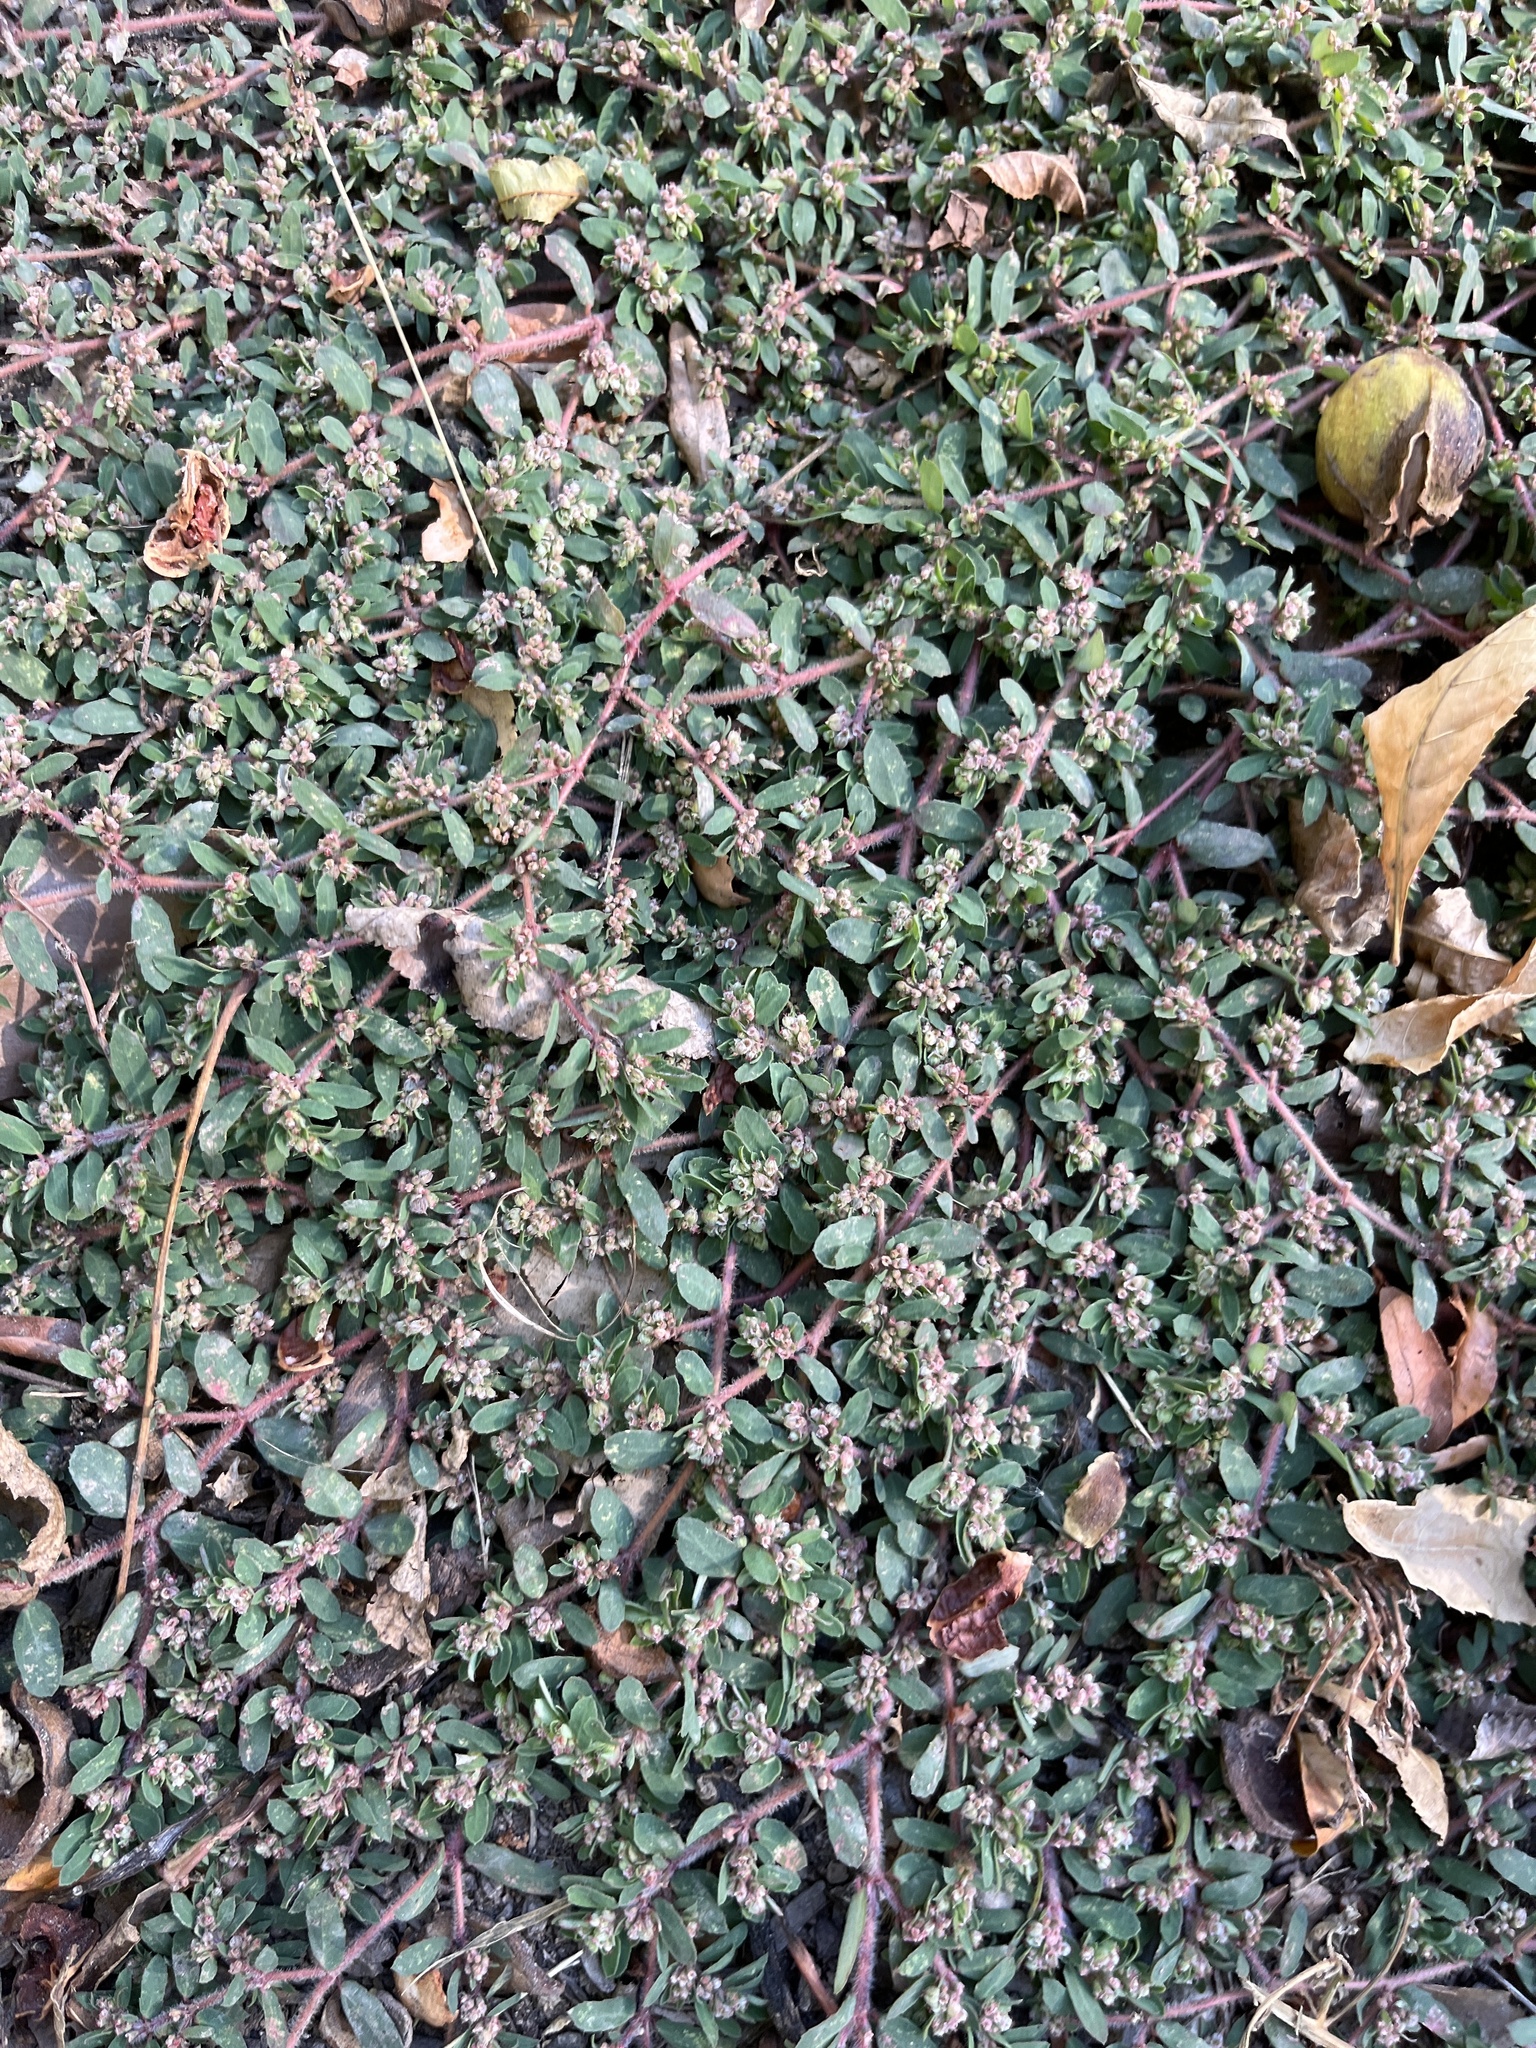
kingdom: Plantae
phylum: Tracheophyta
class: Magnoliopsida
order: Malpighiales
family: Euphorbiaceae
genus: Euphorbia
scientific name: Euphorbia maculata
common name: Spotted spurge
